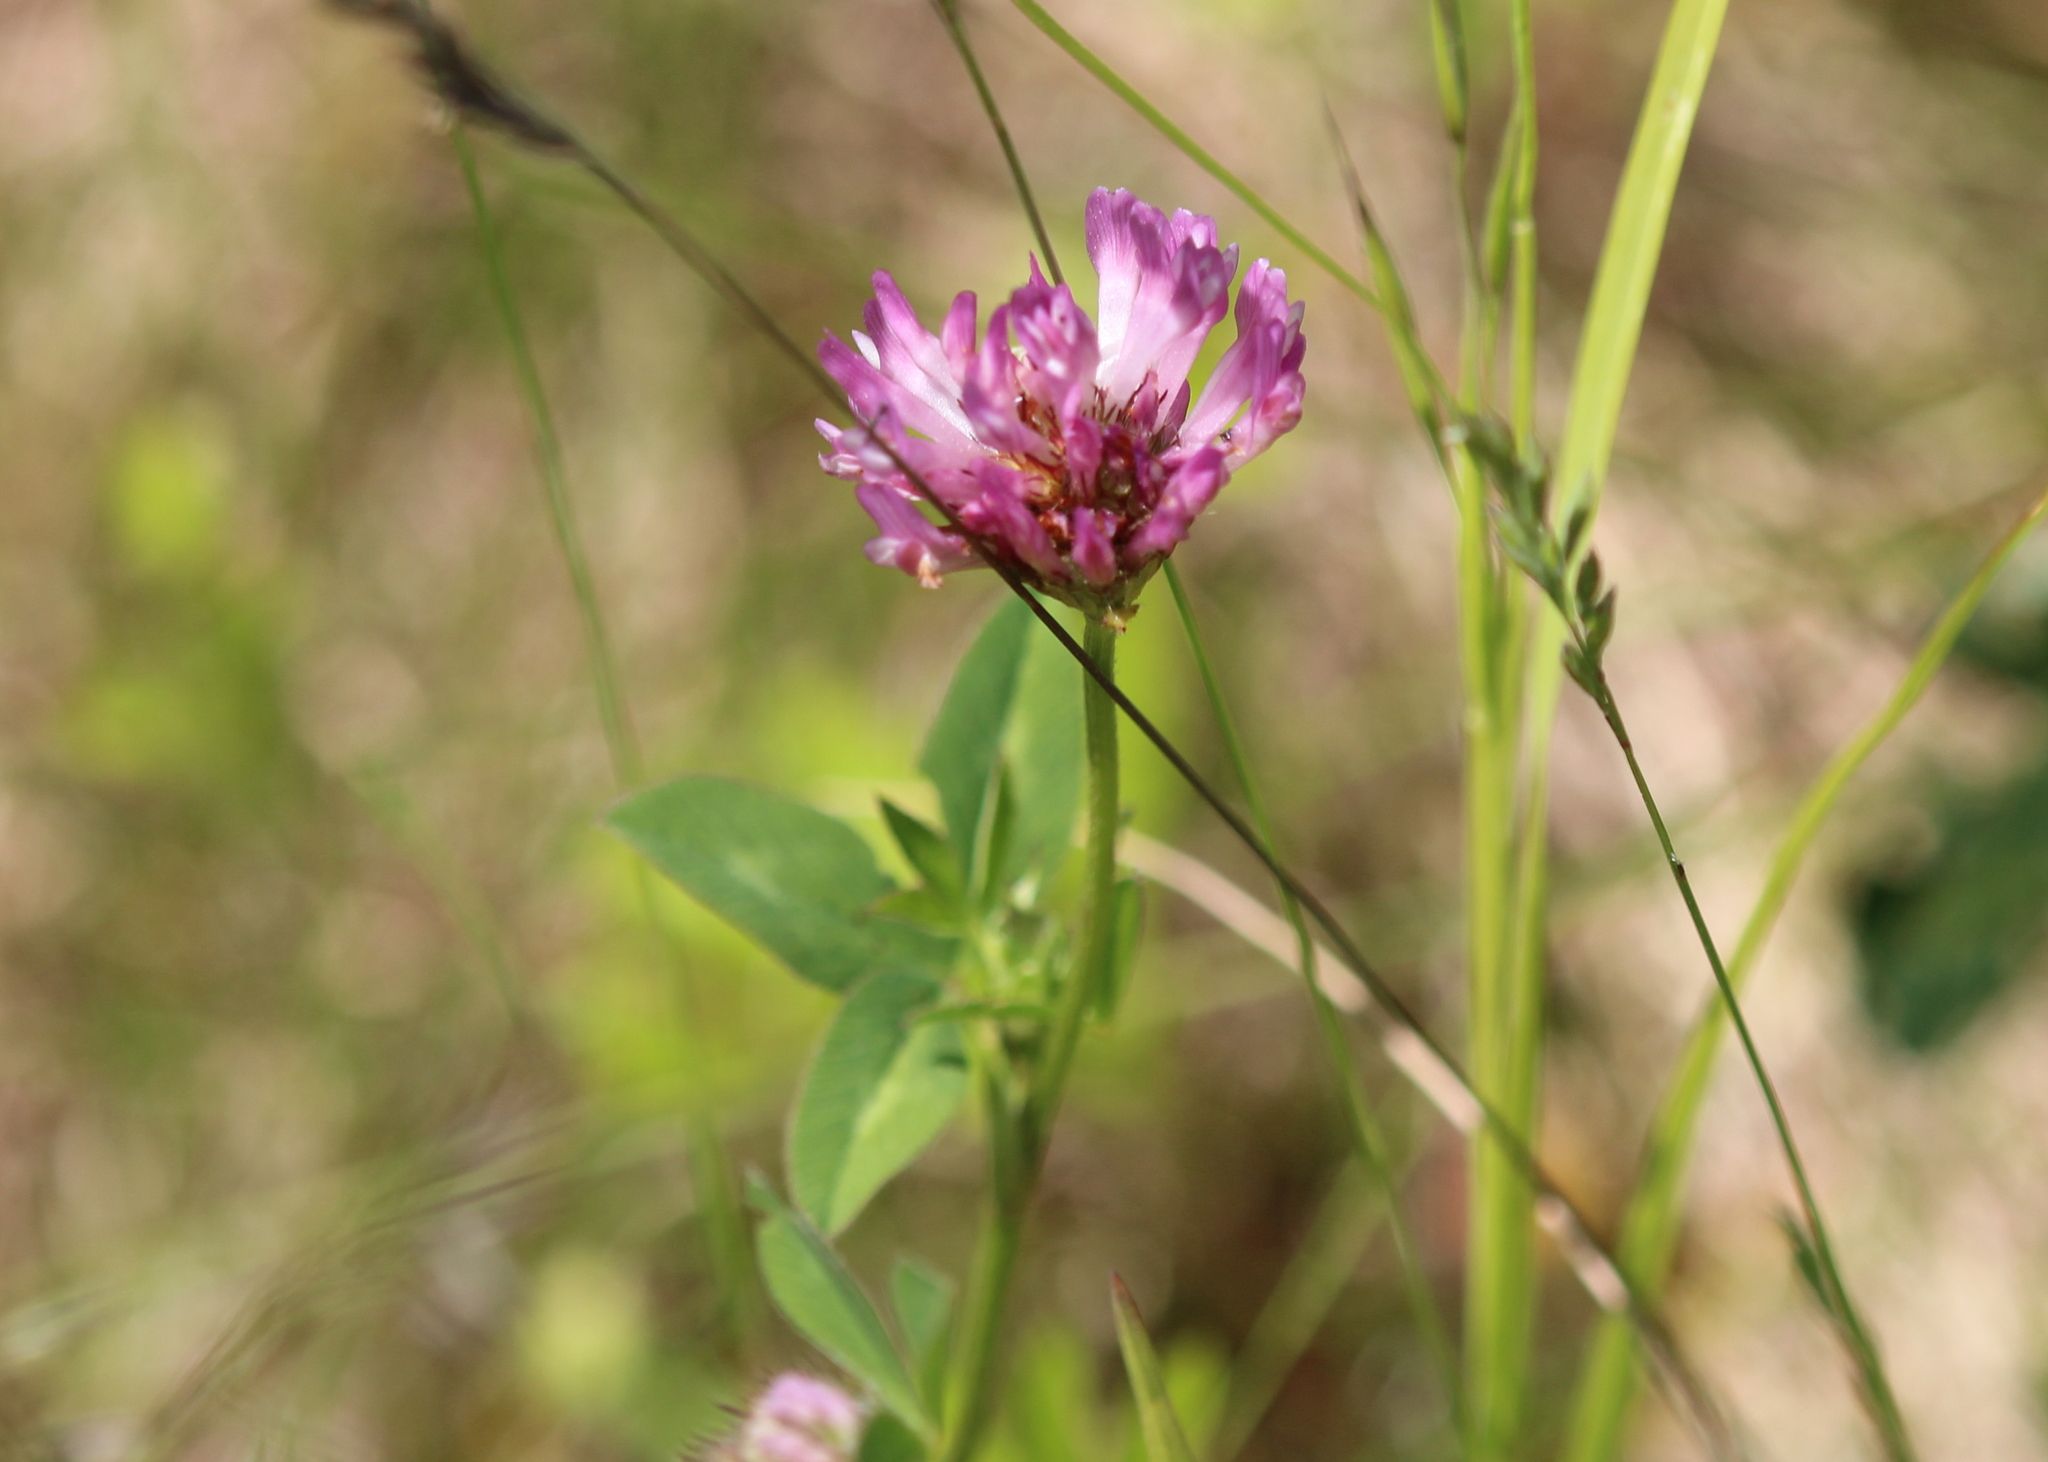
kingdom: Plantae
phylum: Tracheophyta
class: Magnoliopsida
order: Fabales
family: Fabaceae
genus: Trifolium
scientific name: Trifolium pratense
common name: Red clover
